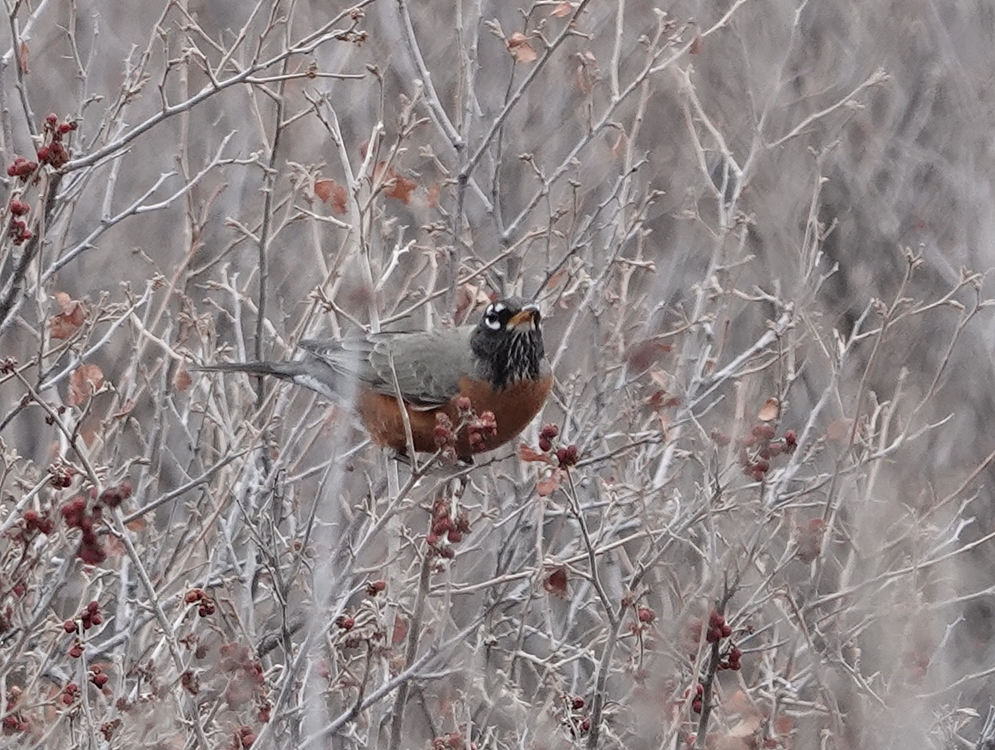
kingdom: Animalia
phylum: Chordata
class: Aves
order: Passeriformes
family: Turdidae
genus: Turdus
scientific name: Turdus migratorius
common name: American robin
